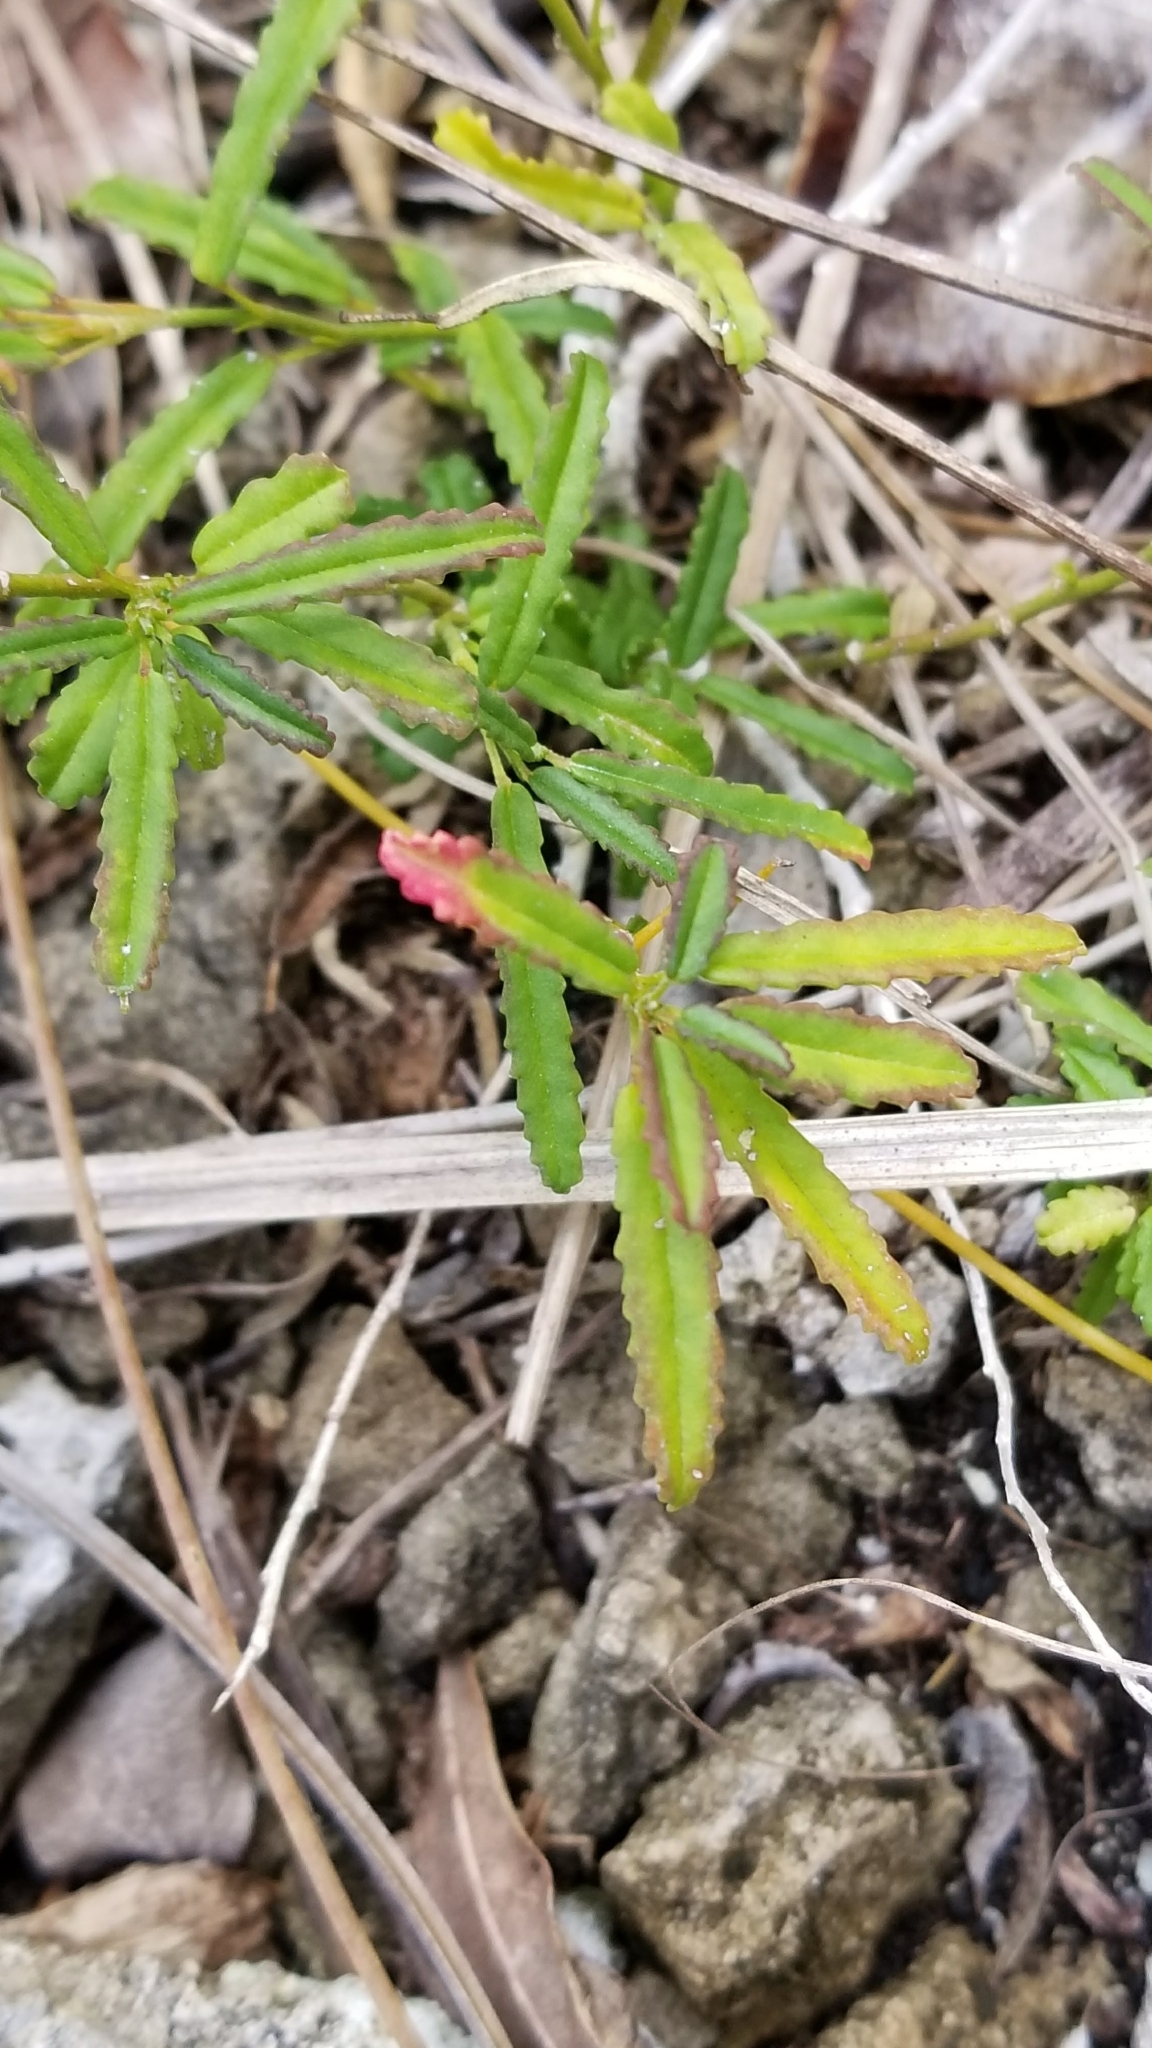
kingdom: Plantae
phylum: Tracheophyta
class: Magnoliopsida
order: Malvales
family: Malvaceae
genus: Sida
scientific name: Sida elliottii
